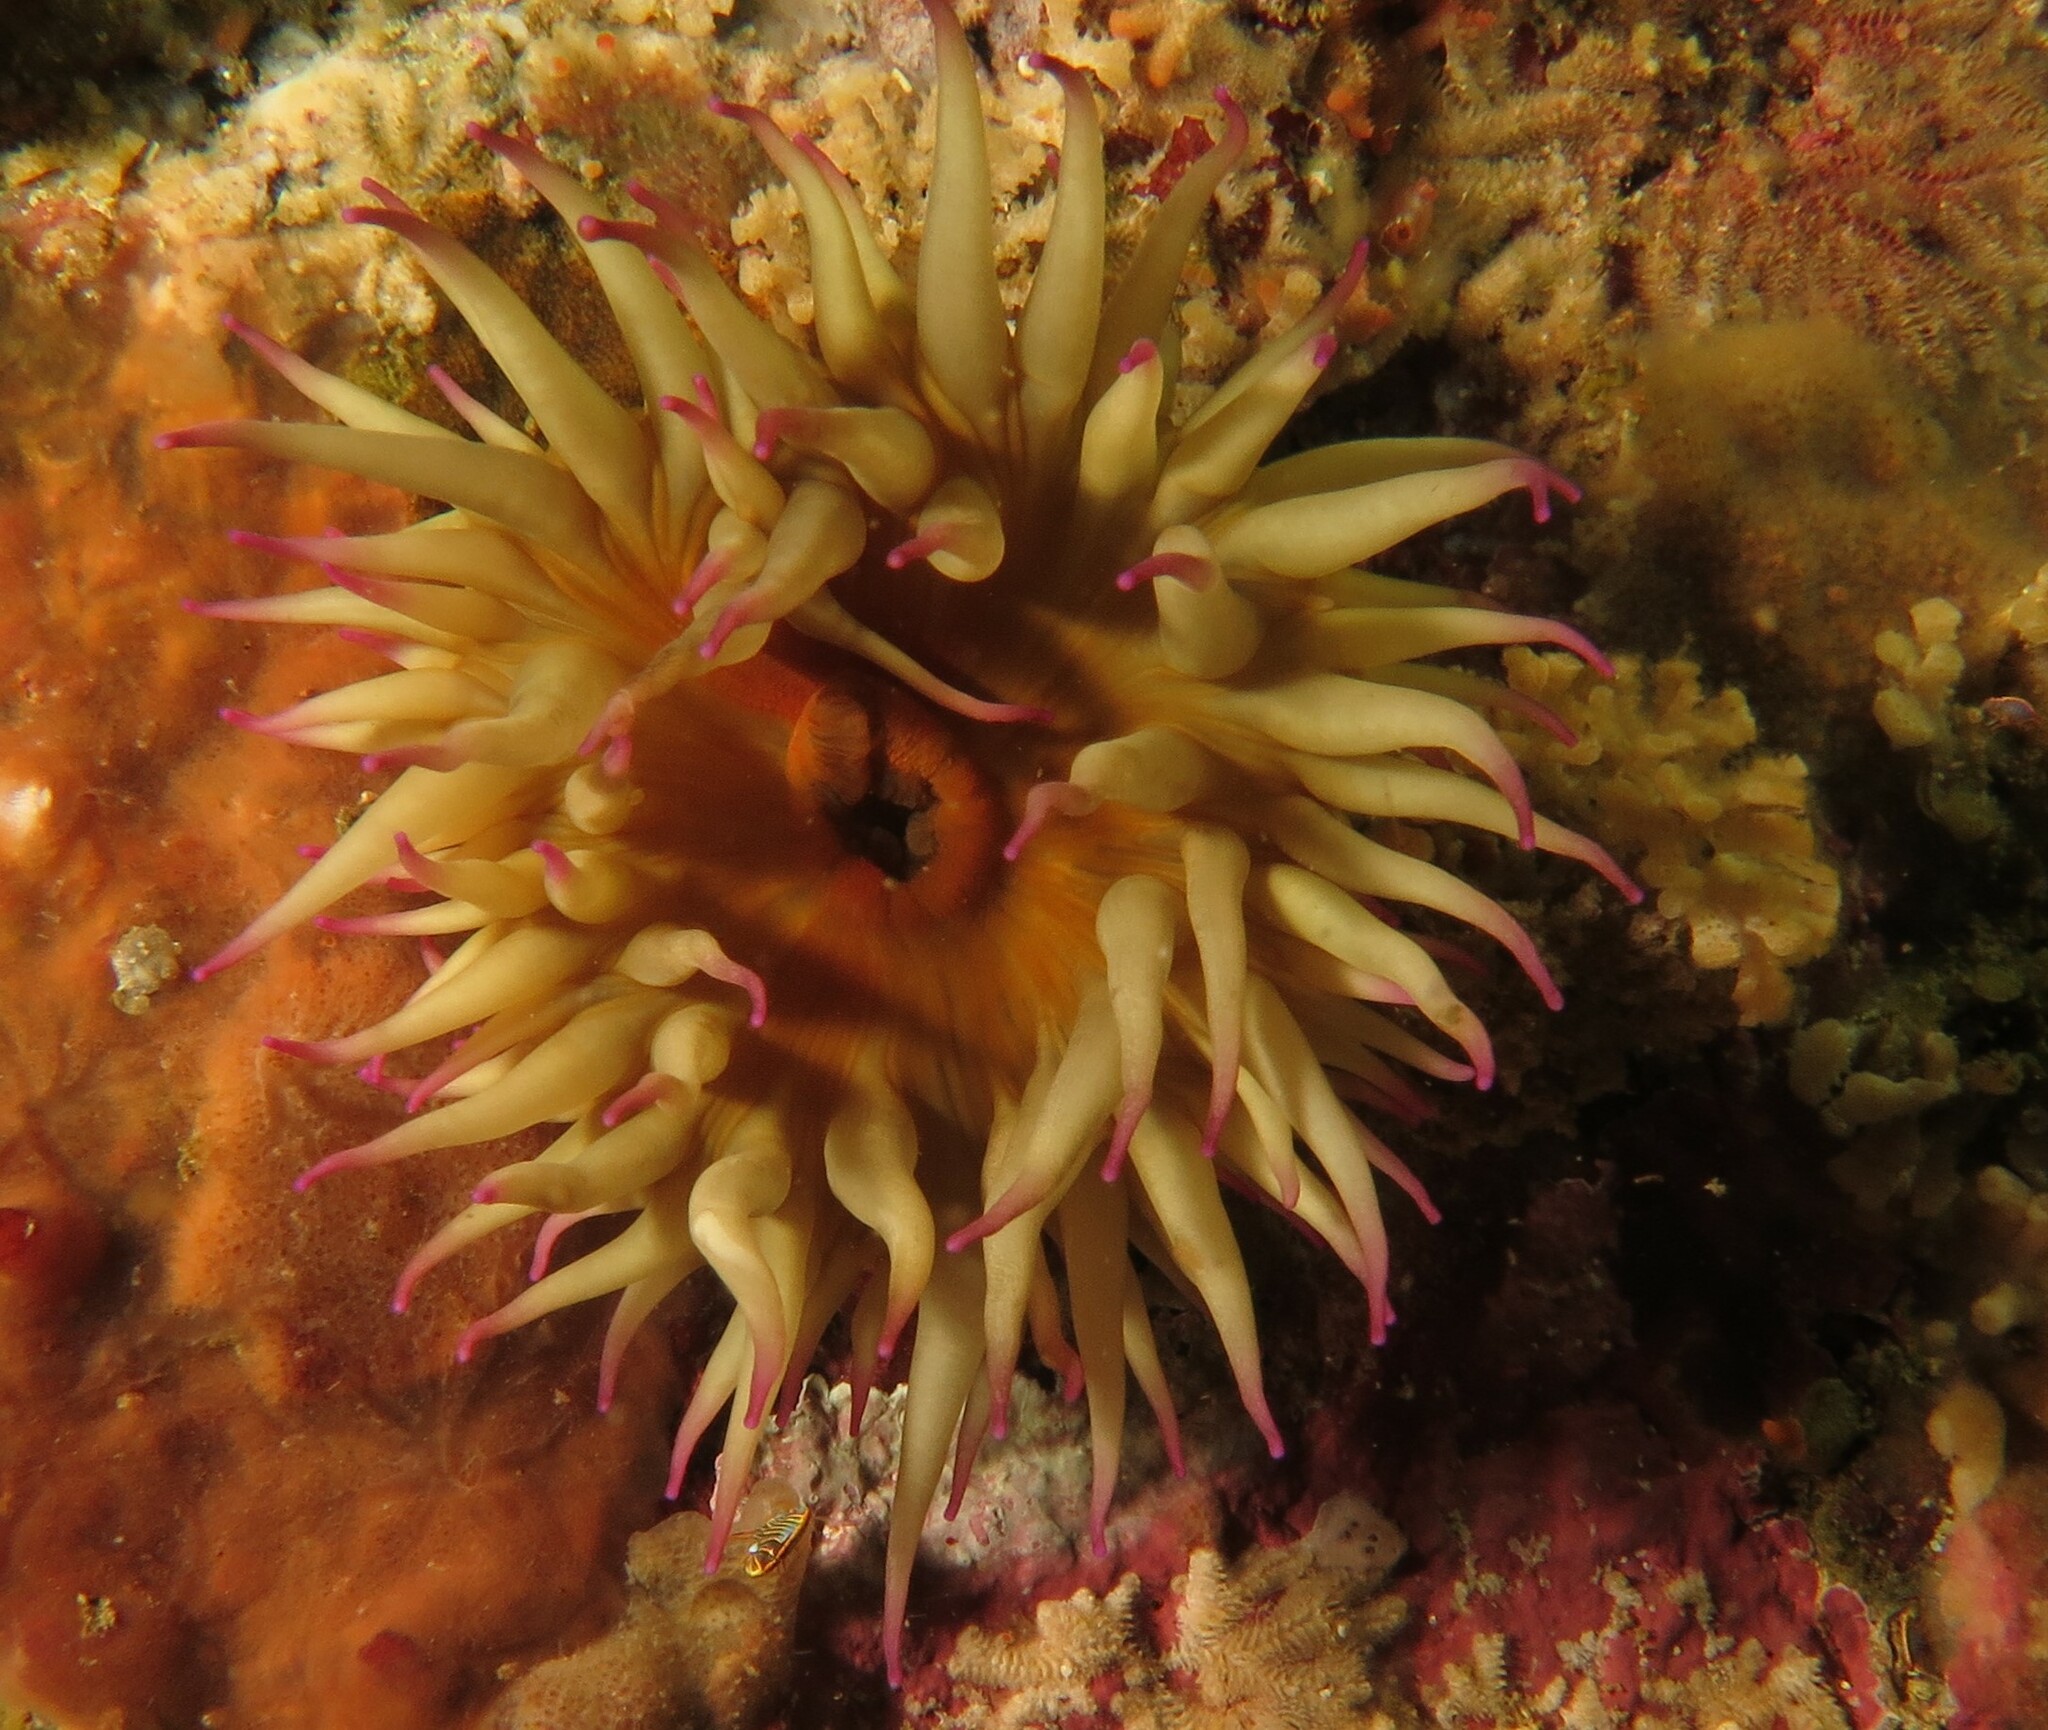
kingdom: Animalia
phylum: Cnidaria
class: Anthozoa
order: Actiniaria
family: Actiniidae
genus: Pseudactinia
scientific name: Pseudactinia flagellifera
